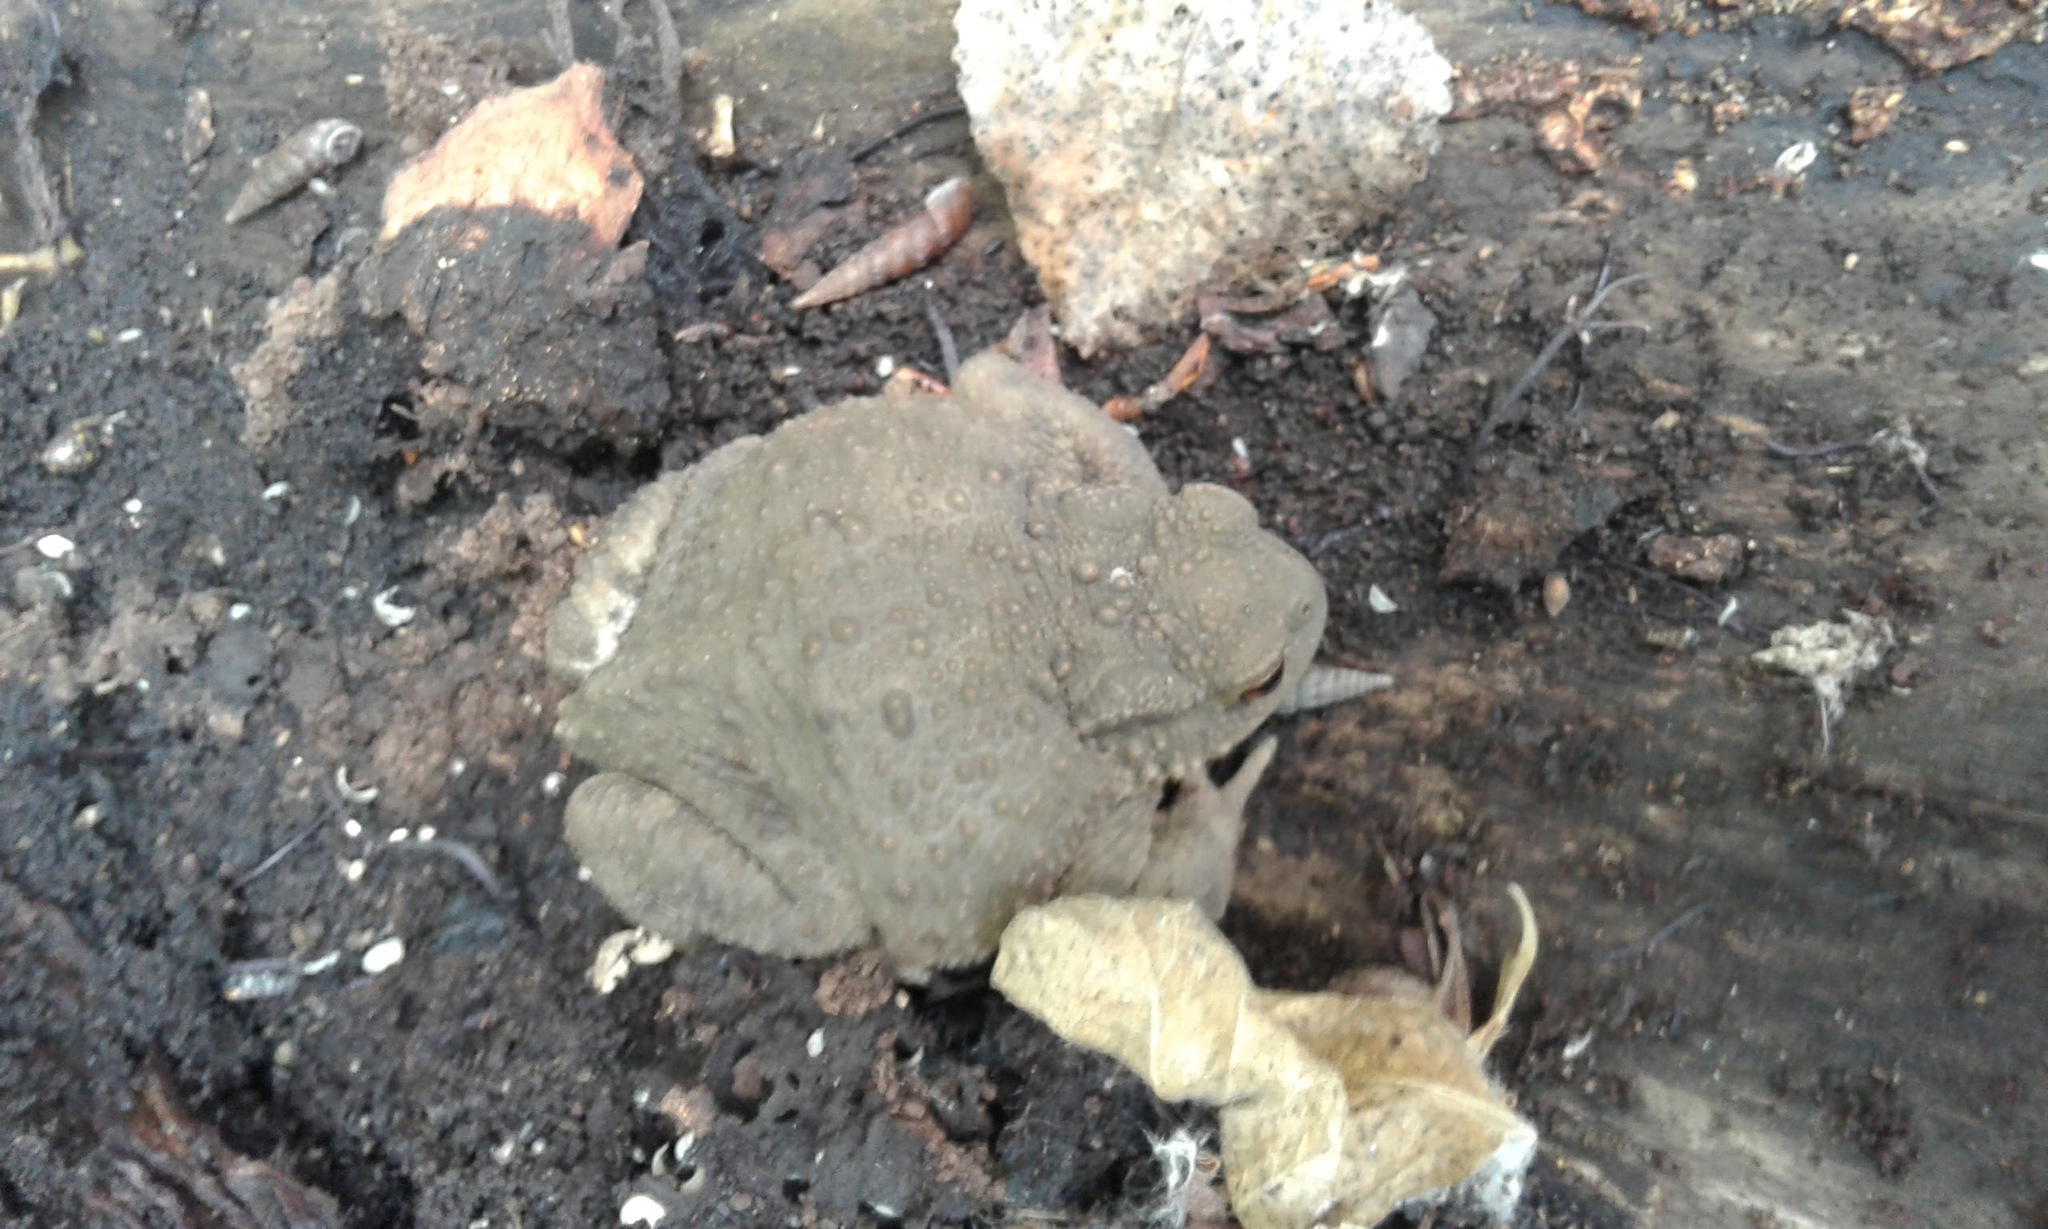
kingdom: Animalia
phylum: Chordata
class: Amphibia
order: Anura
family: Bufonidae
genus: Bufo
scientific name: Bufo bufo
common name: Common toad
